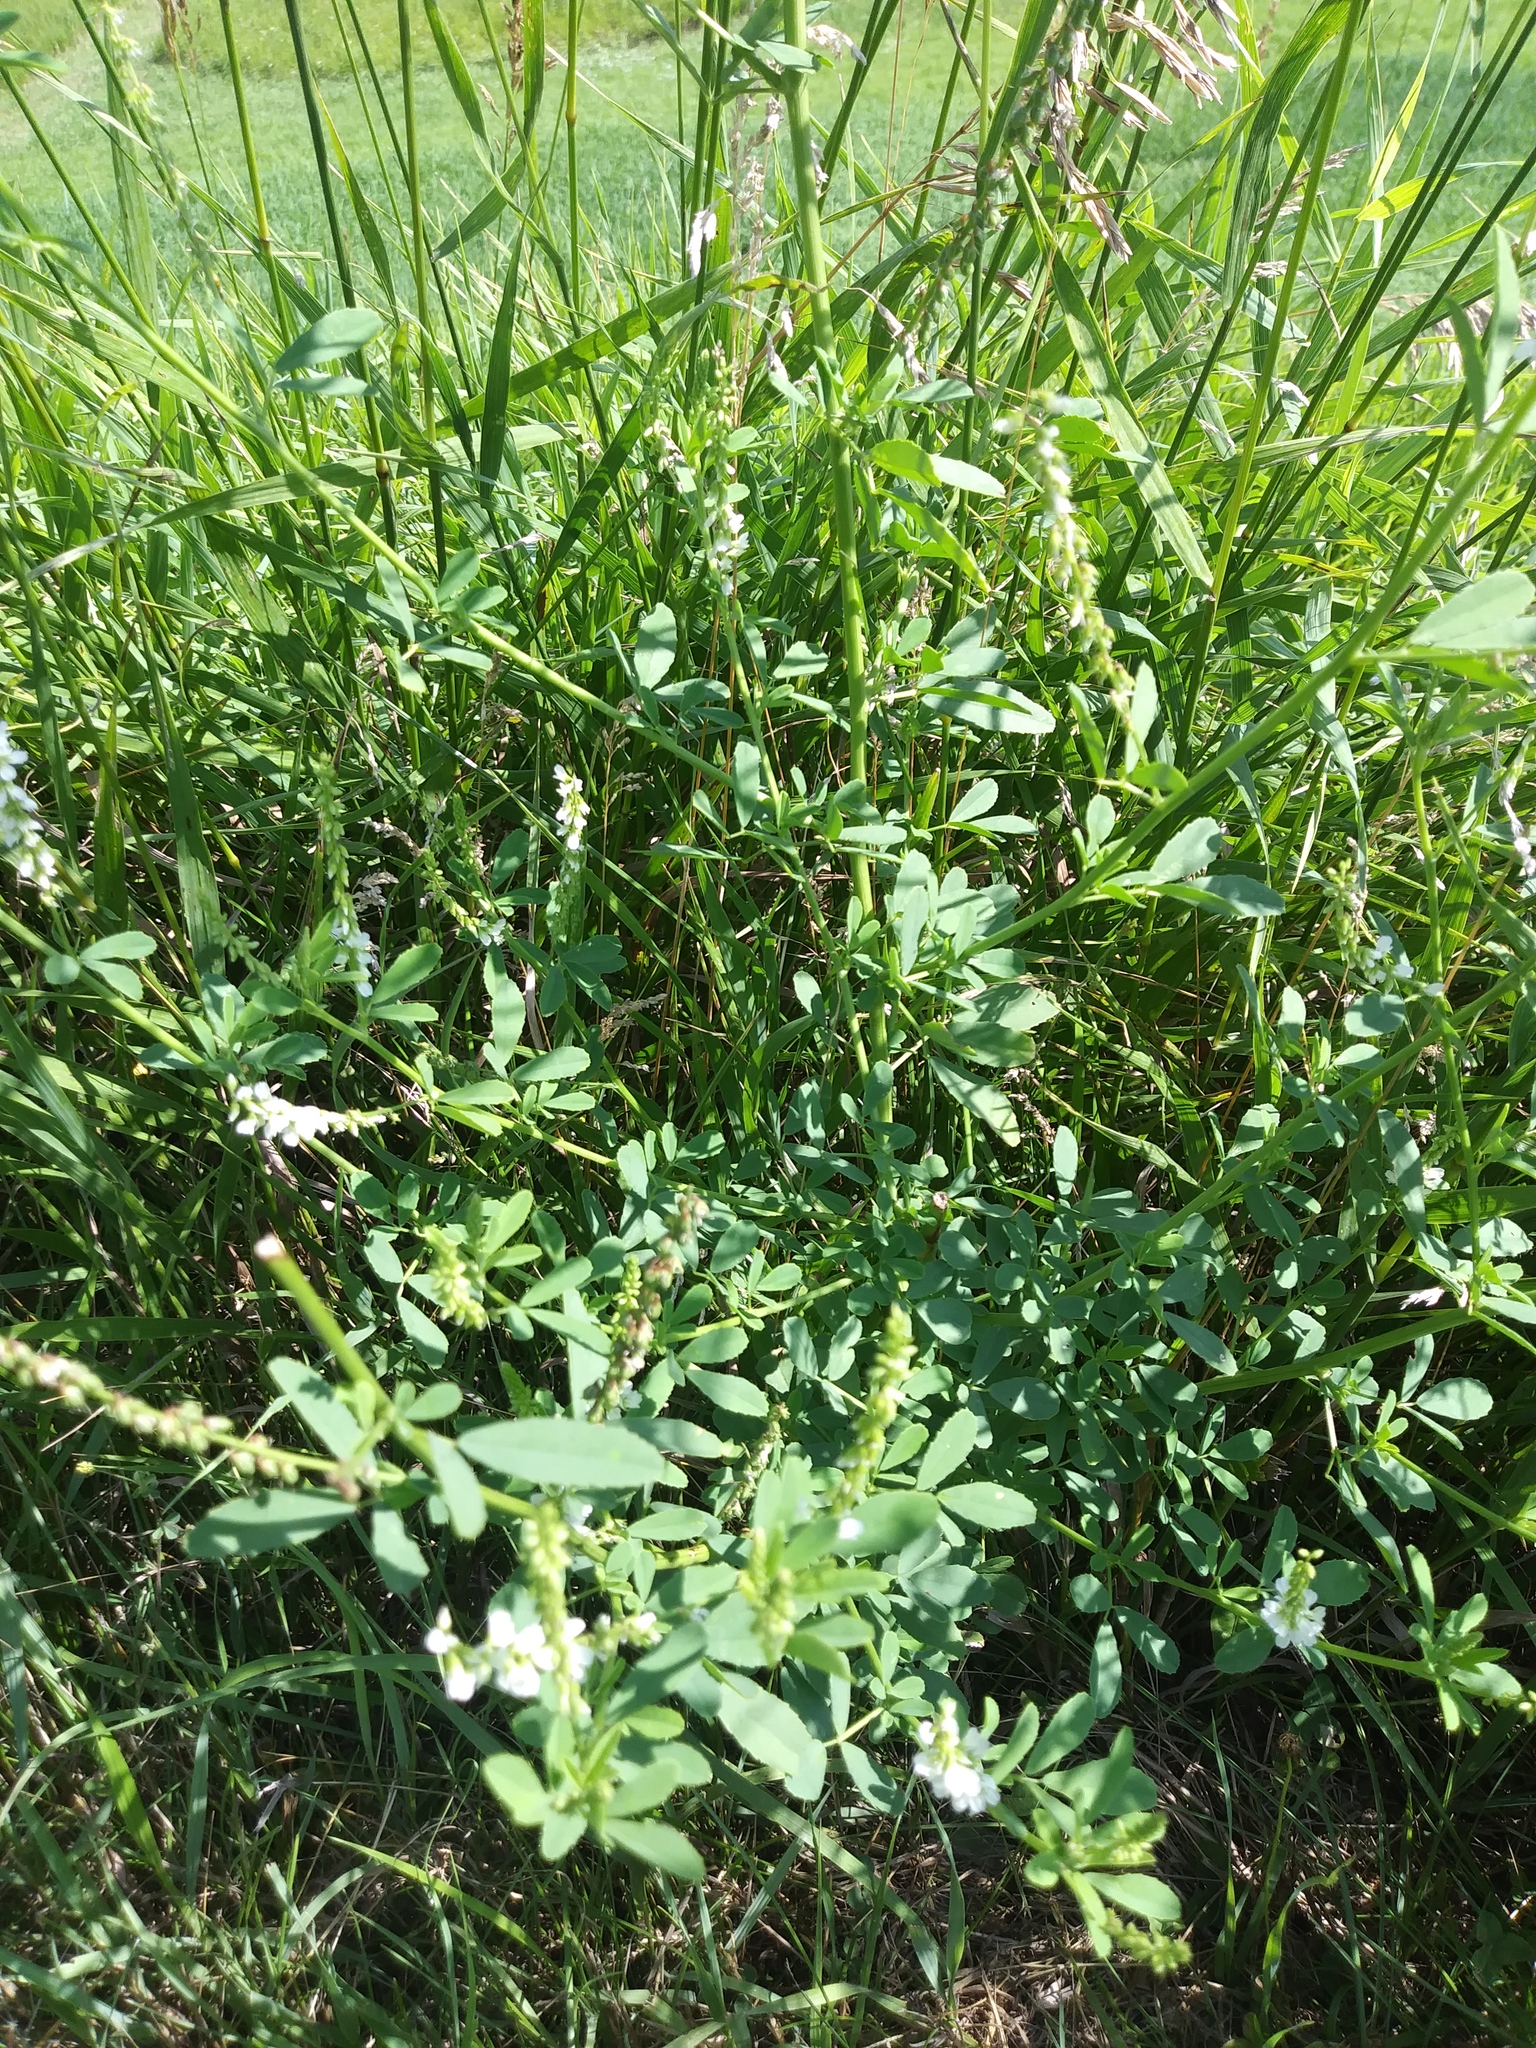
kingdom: Plantae
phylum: Tracheophyta
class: Magnoliopsida
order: Fabales
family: Fabaceae
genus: Melilotus
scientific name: Melilotus albus
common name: White melilot
